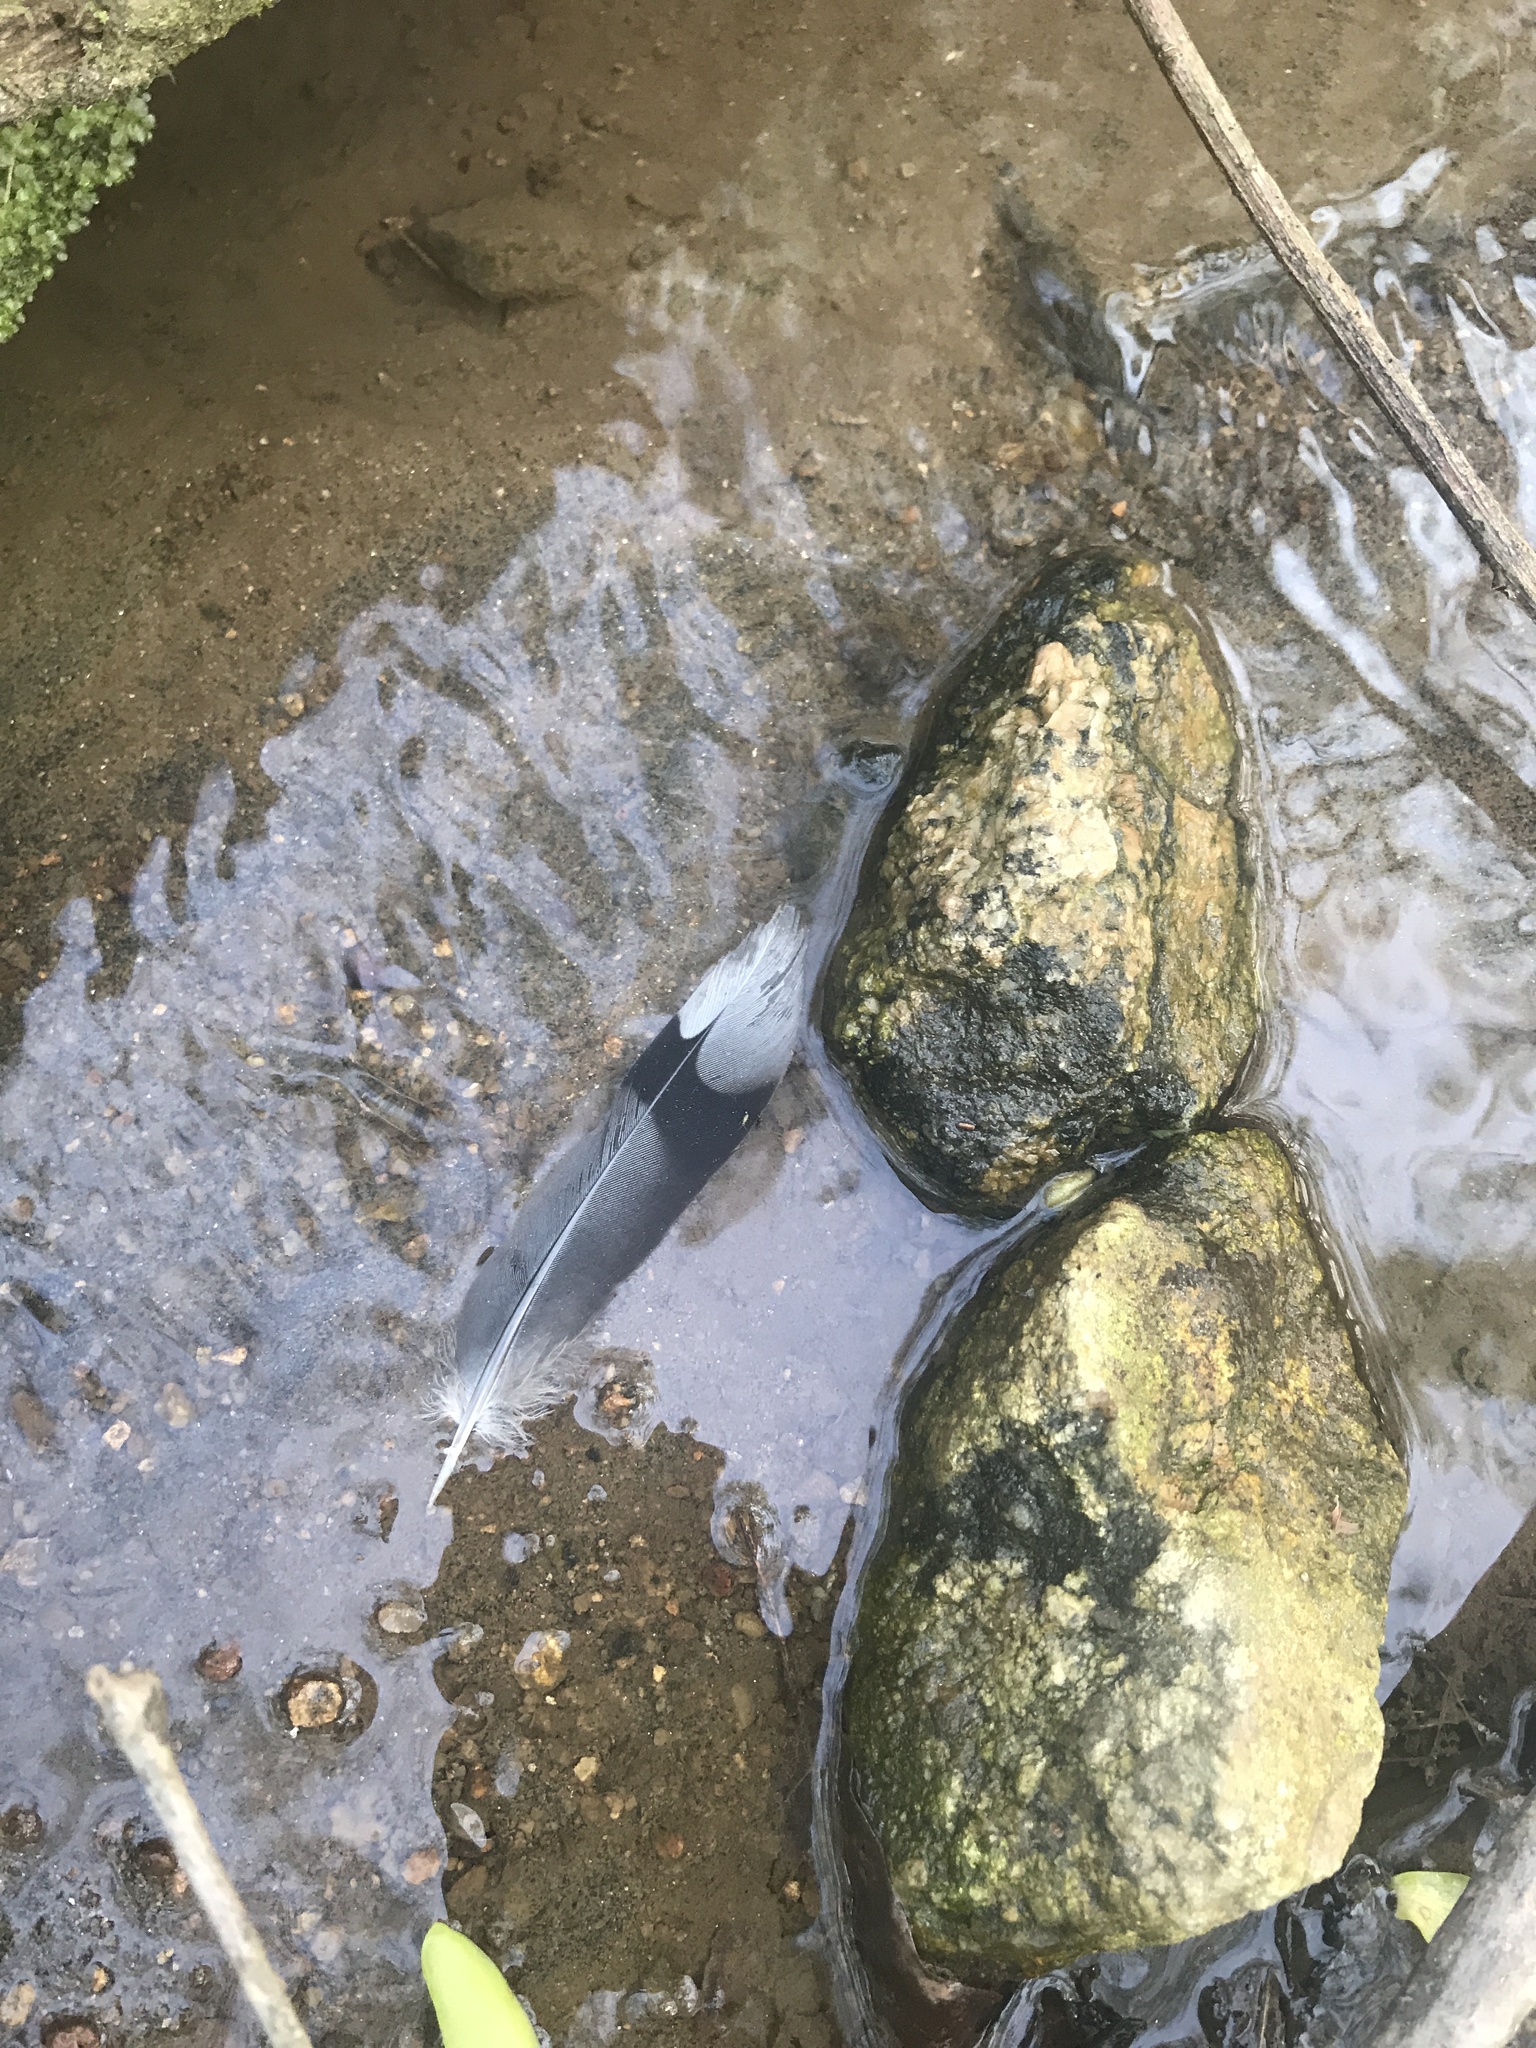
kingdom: Animalia
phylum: Chordata
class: Aves
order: Columbiformes
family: Columbidae
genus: Zenaida
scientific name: Zenaida macroura
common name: Mourning dove
